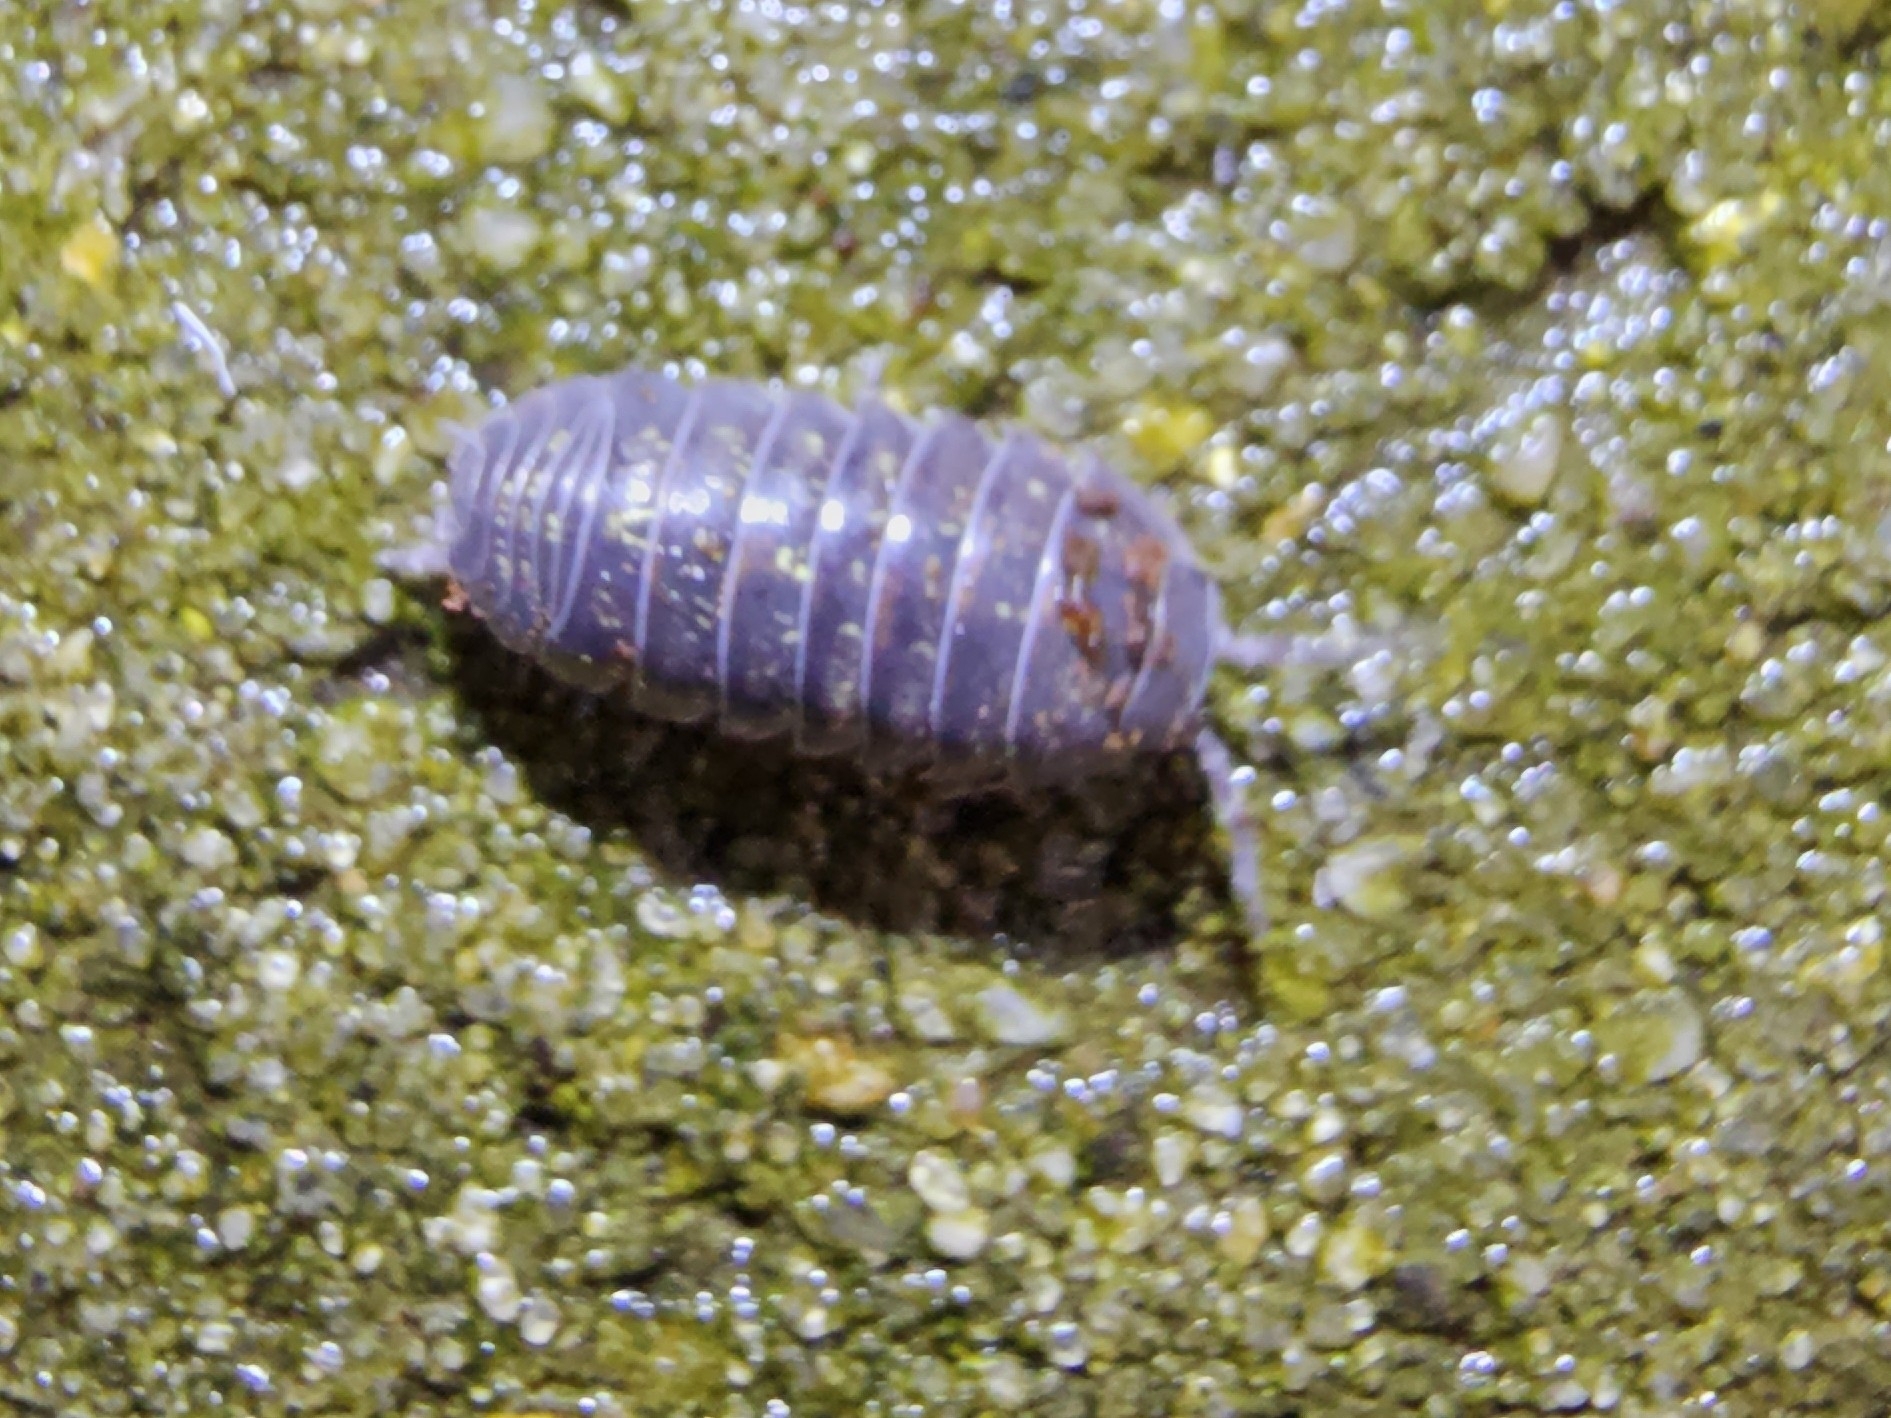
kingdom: Animalia
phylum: Arthropoda
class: Malacostraca
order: Isopoda
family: Armadillidiidae
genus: Armadillidium
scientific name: Armadillidium vulgare
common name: Common pill woodlouse
